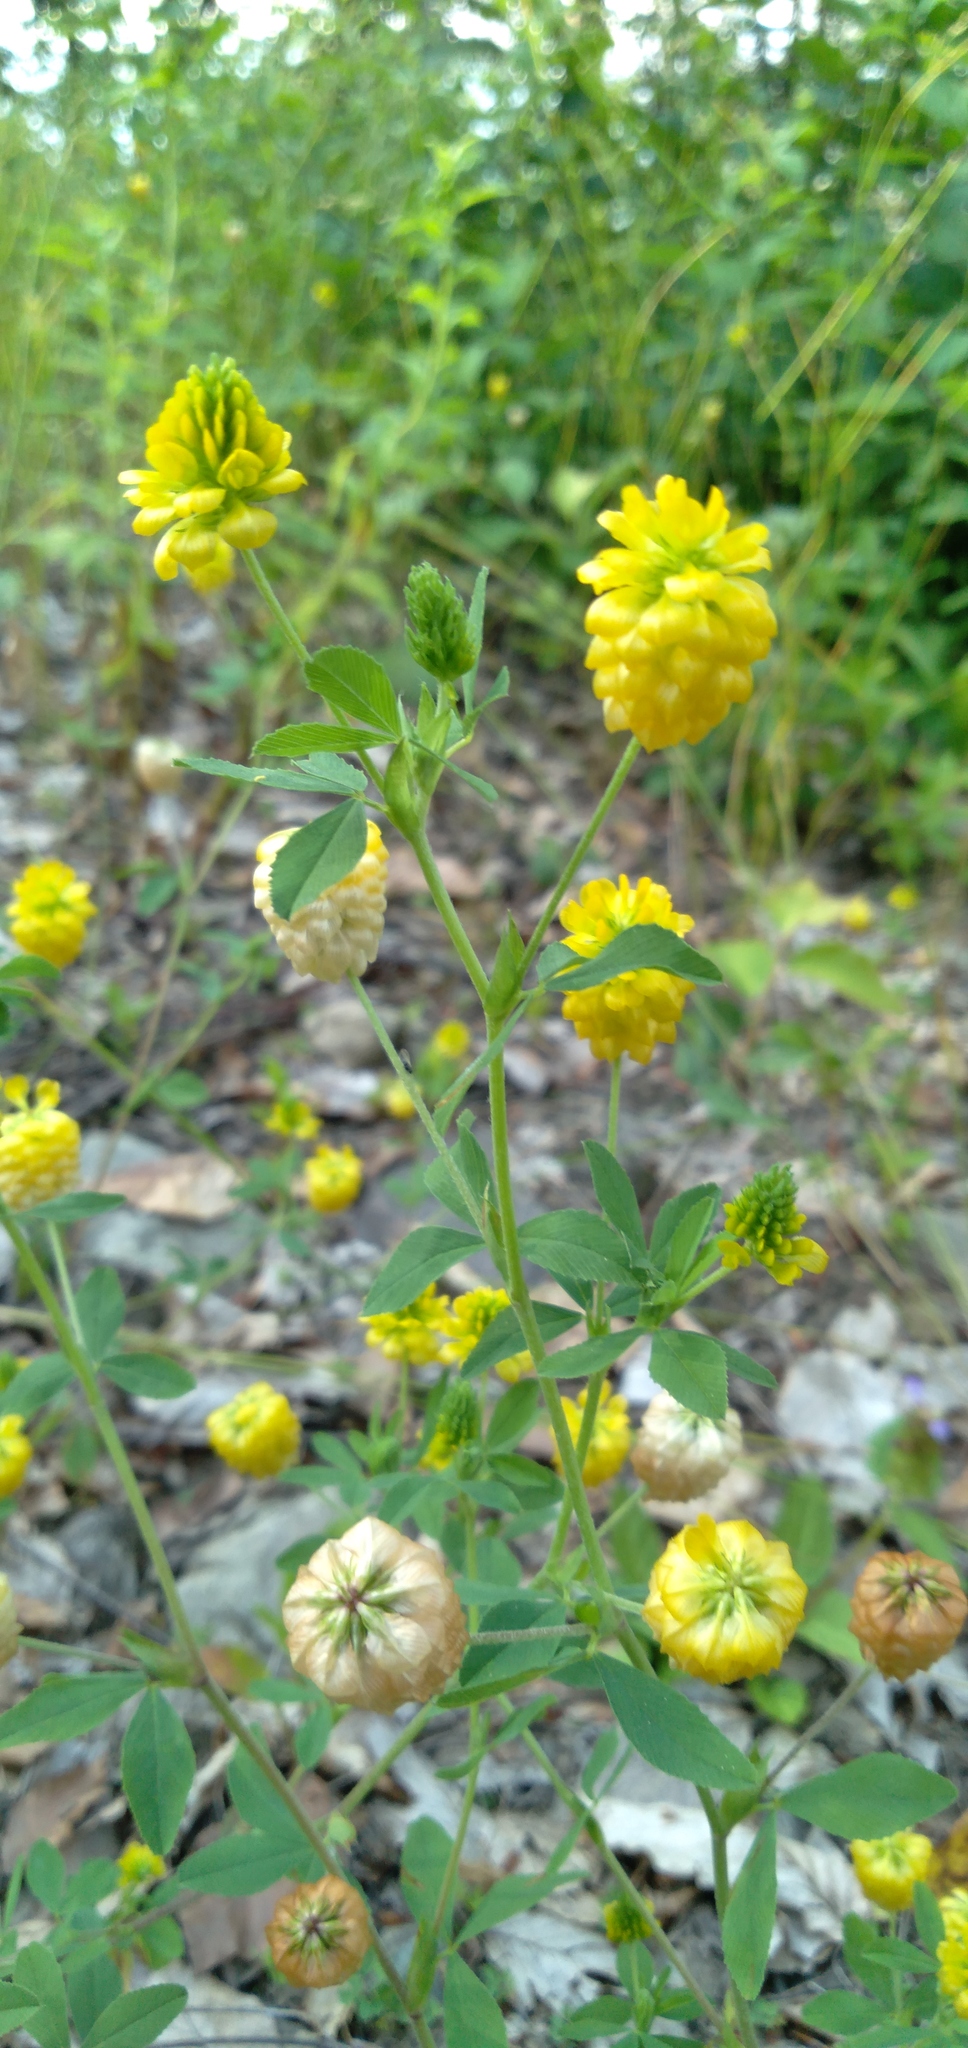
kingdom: Plantae
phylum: Tracheophyta
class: Magnoliopsida
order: Fabales
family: Fabaceae
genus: Trifolium
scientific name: Trifolium aureum
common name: Golden clover
